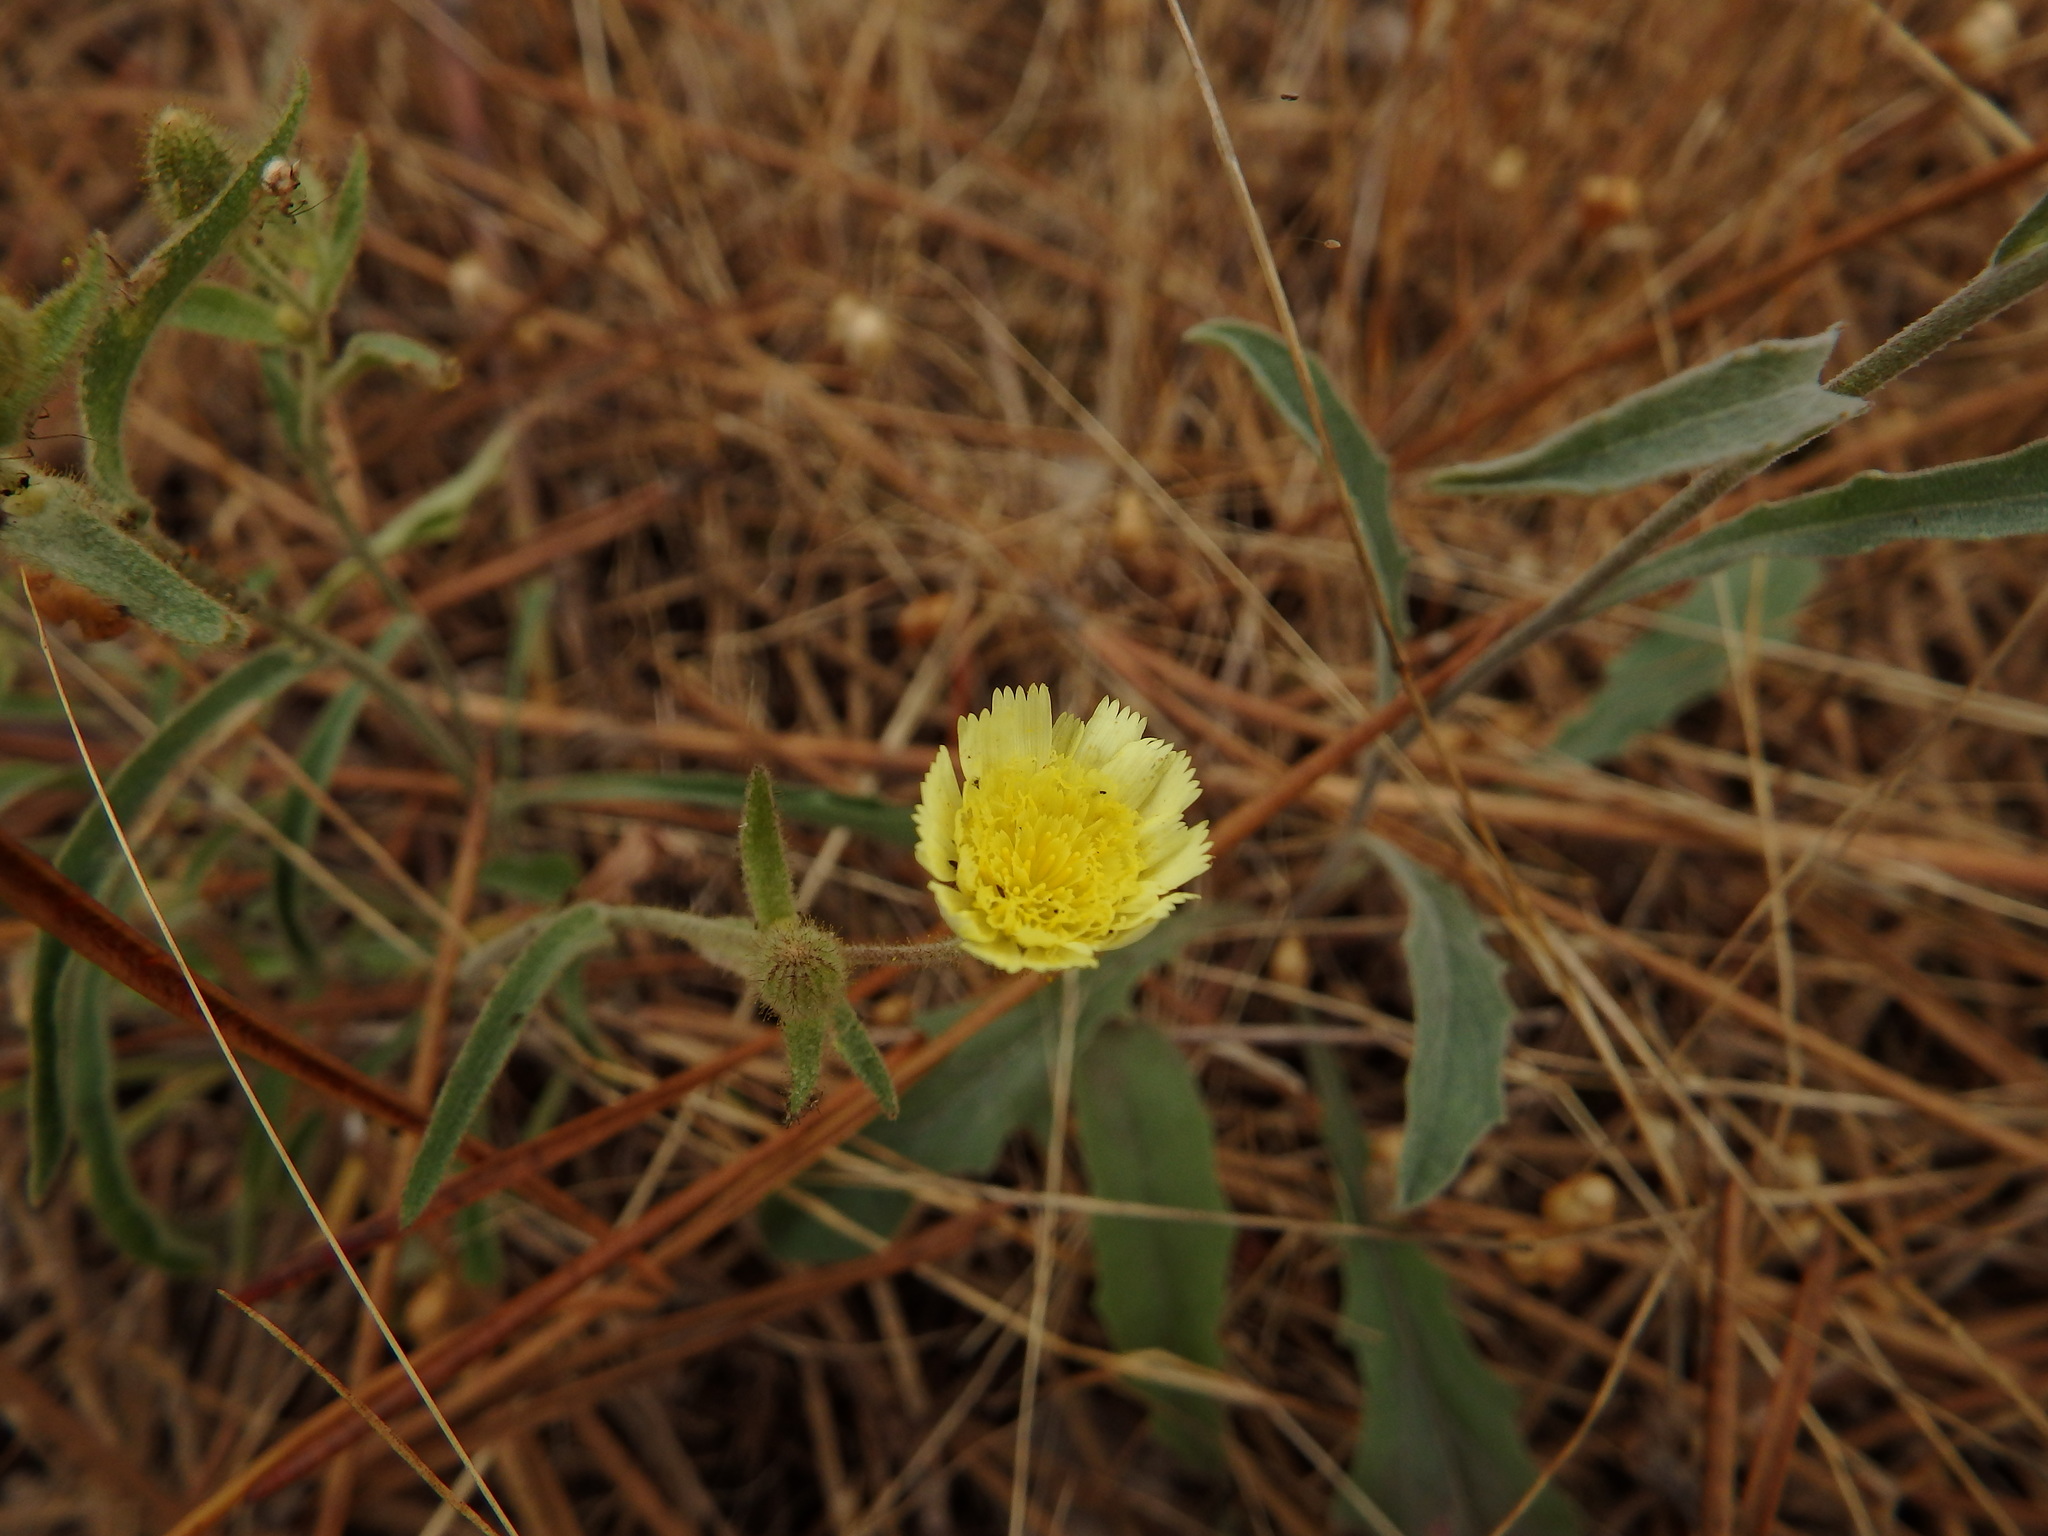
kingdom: Plantae
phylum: Tracheophyta
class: Magnoliopsida
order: Asterales
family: Asteraceae
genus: Andryala
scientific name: Andryala integrifolia
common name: Common andryala
